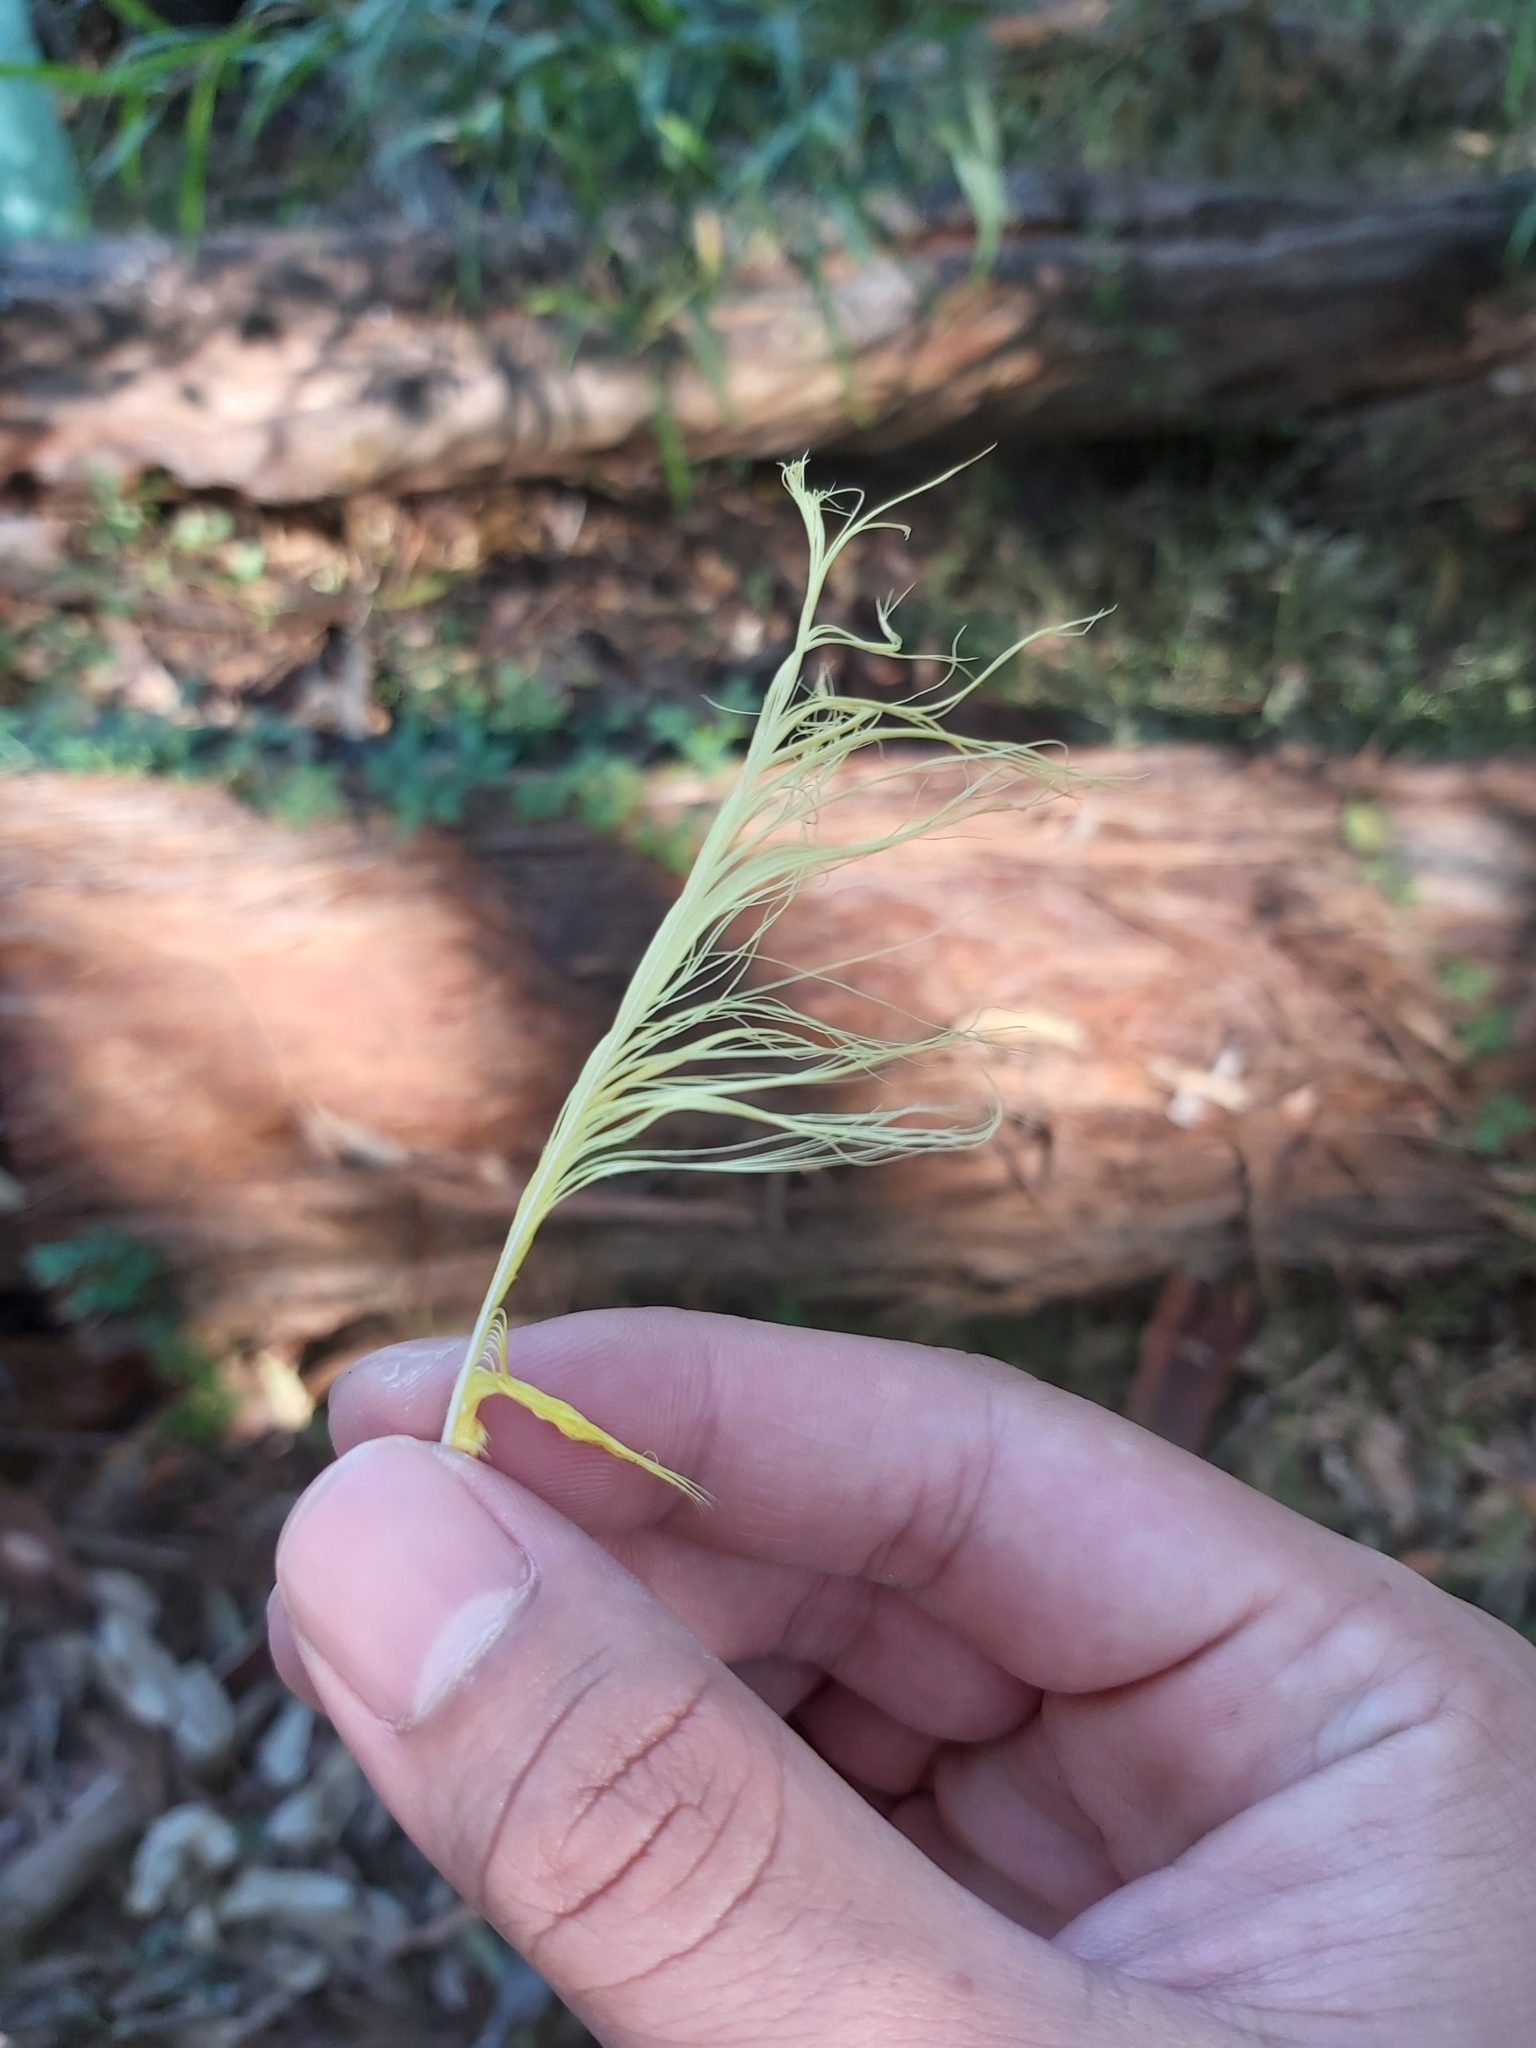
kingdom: Animalia
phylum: Chordata
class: Aves
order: Psittaciformes
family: Psittacidae
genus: Cacatua
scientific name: Cacatua galerita
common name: Sulphur-crested cockatoo
